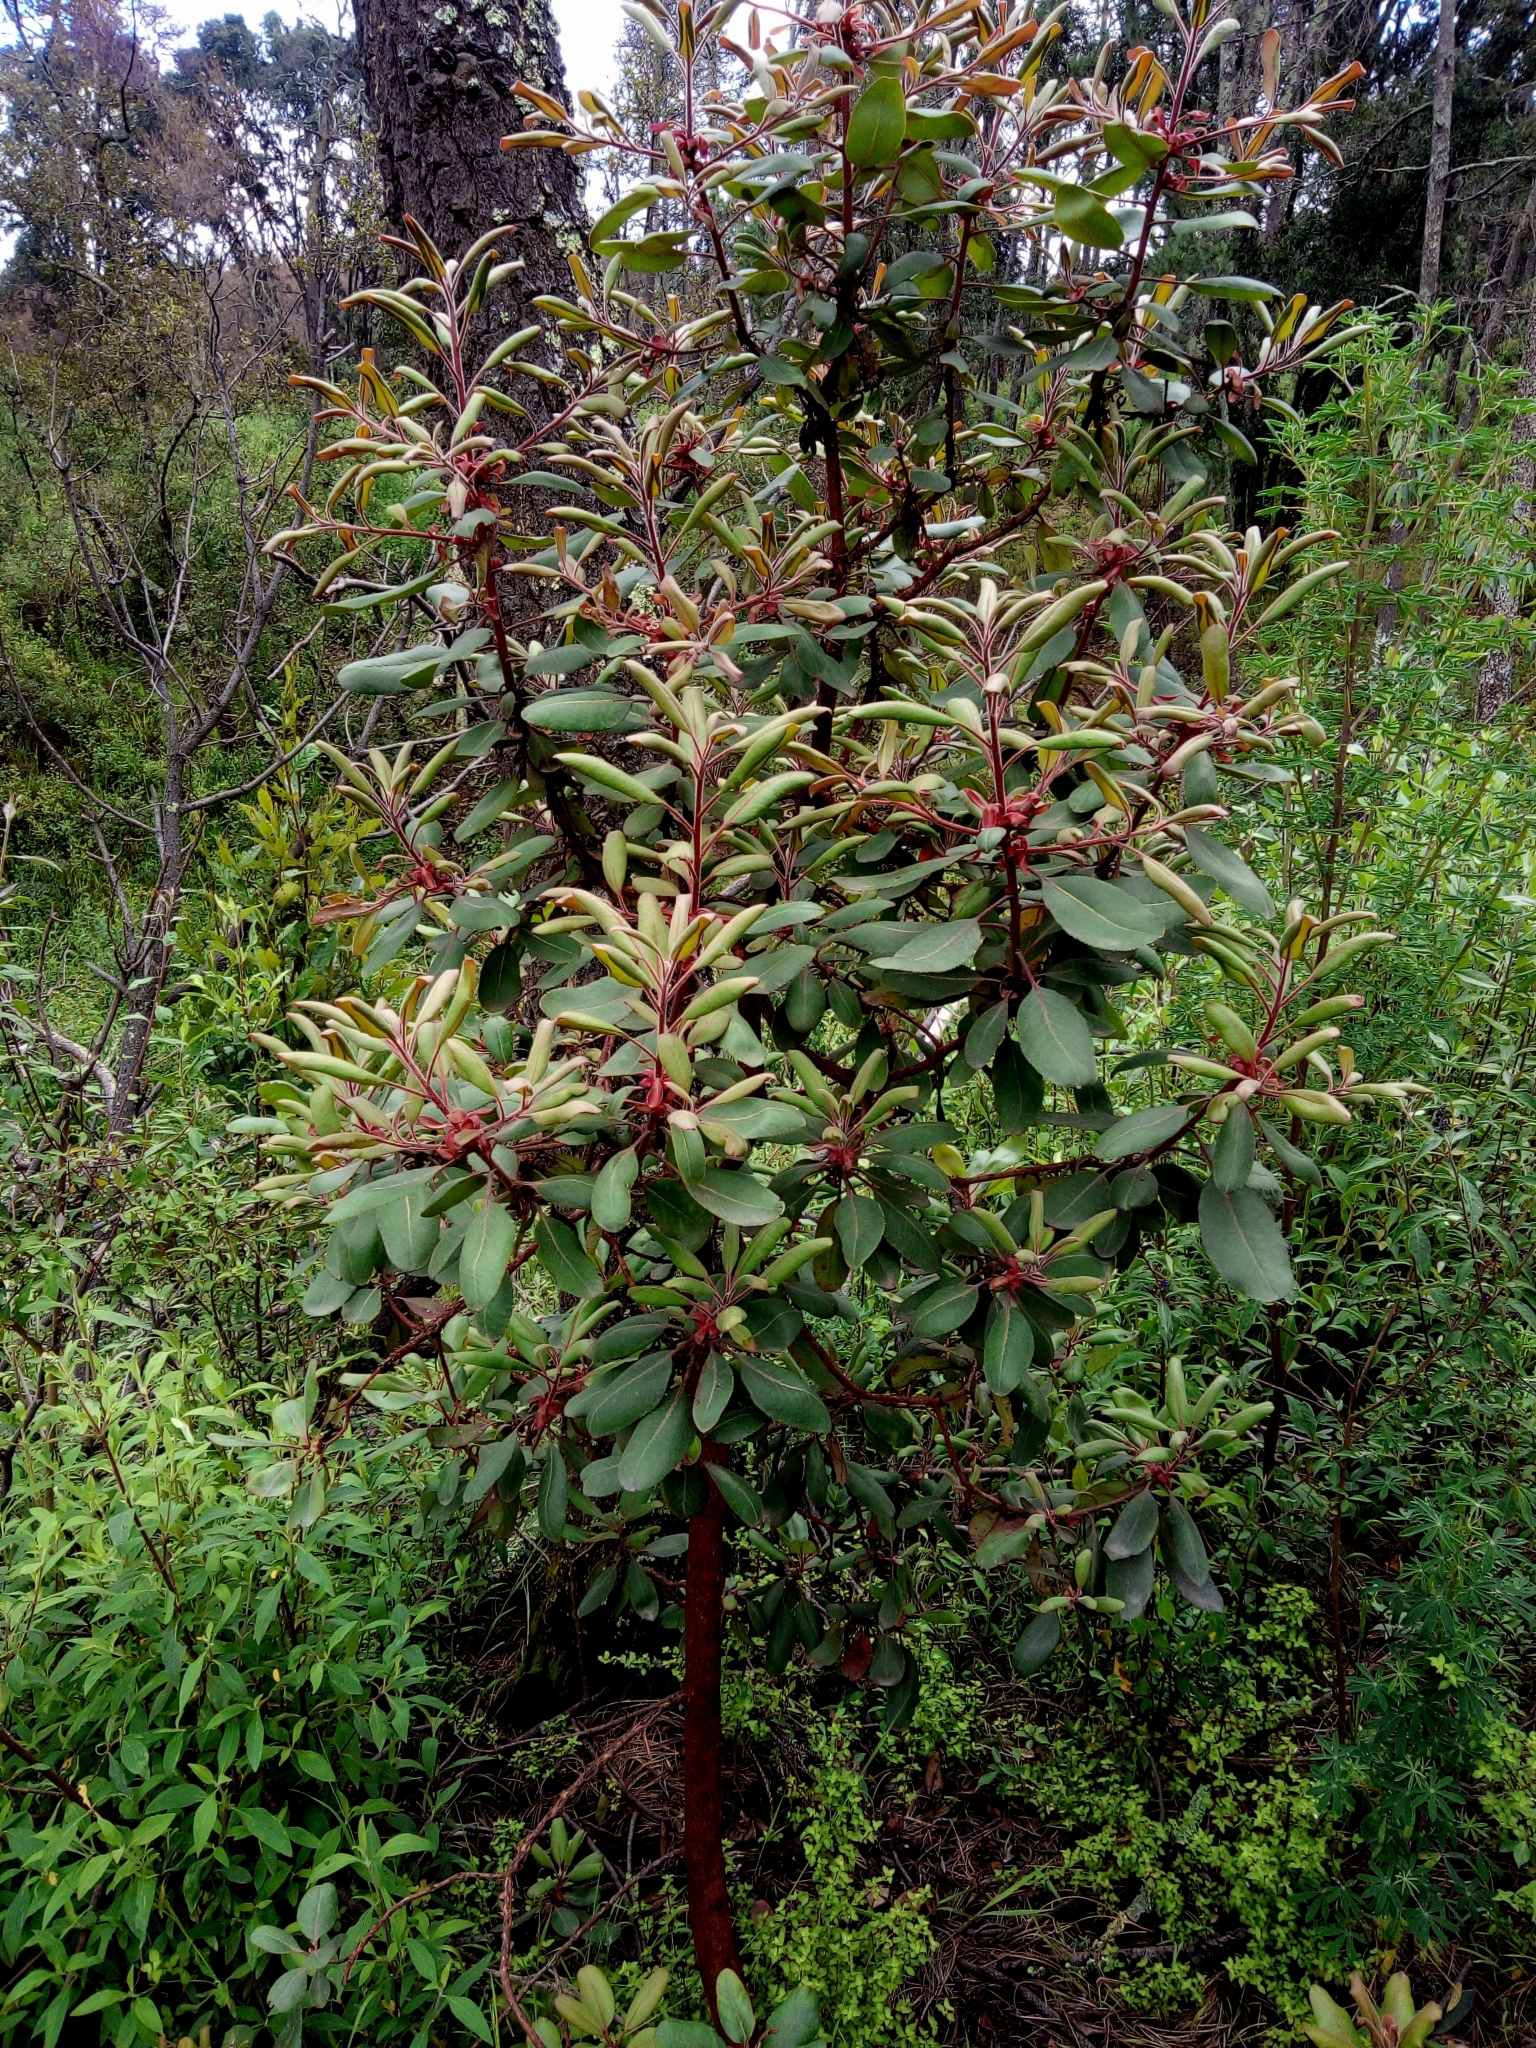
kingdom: Plantae
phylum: Tracheophyta
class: Magnoliopsida
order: Ericales
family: Ericaceae
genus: Arbutus
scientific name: Arbutus xalapensis
